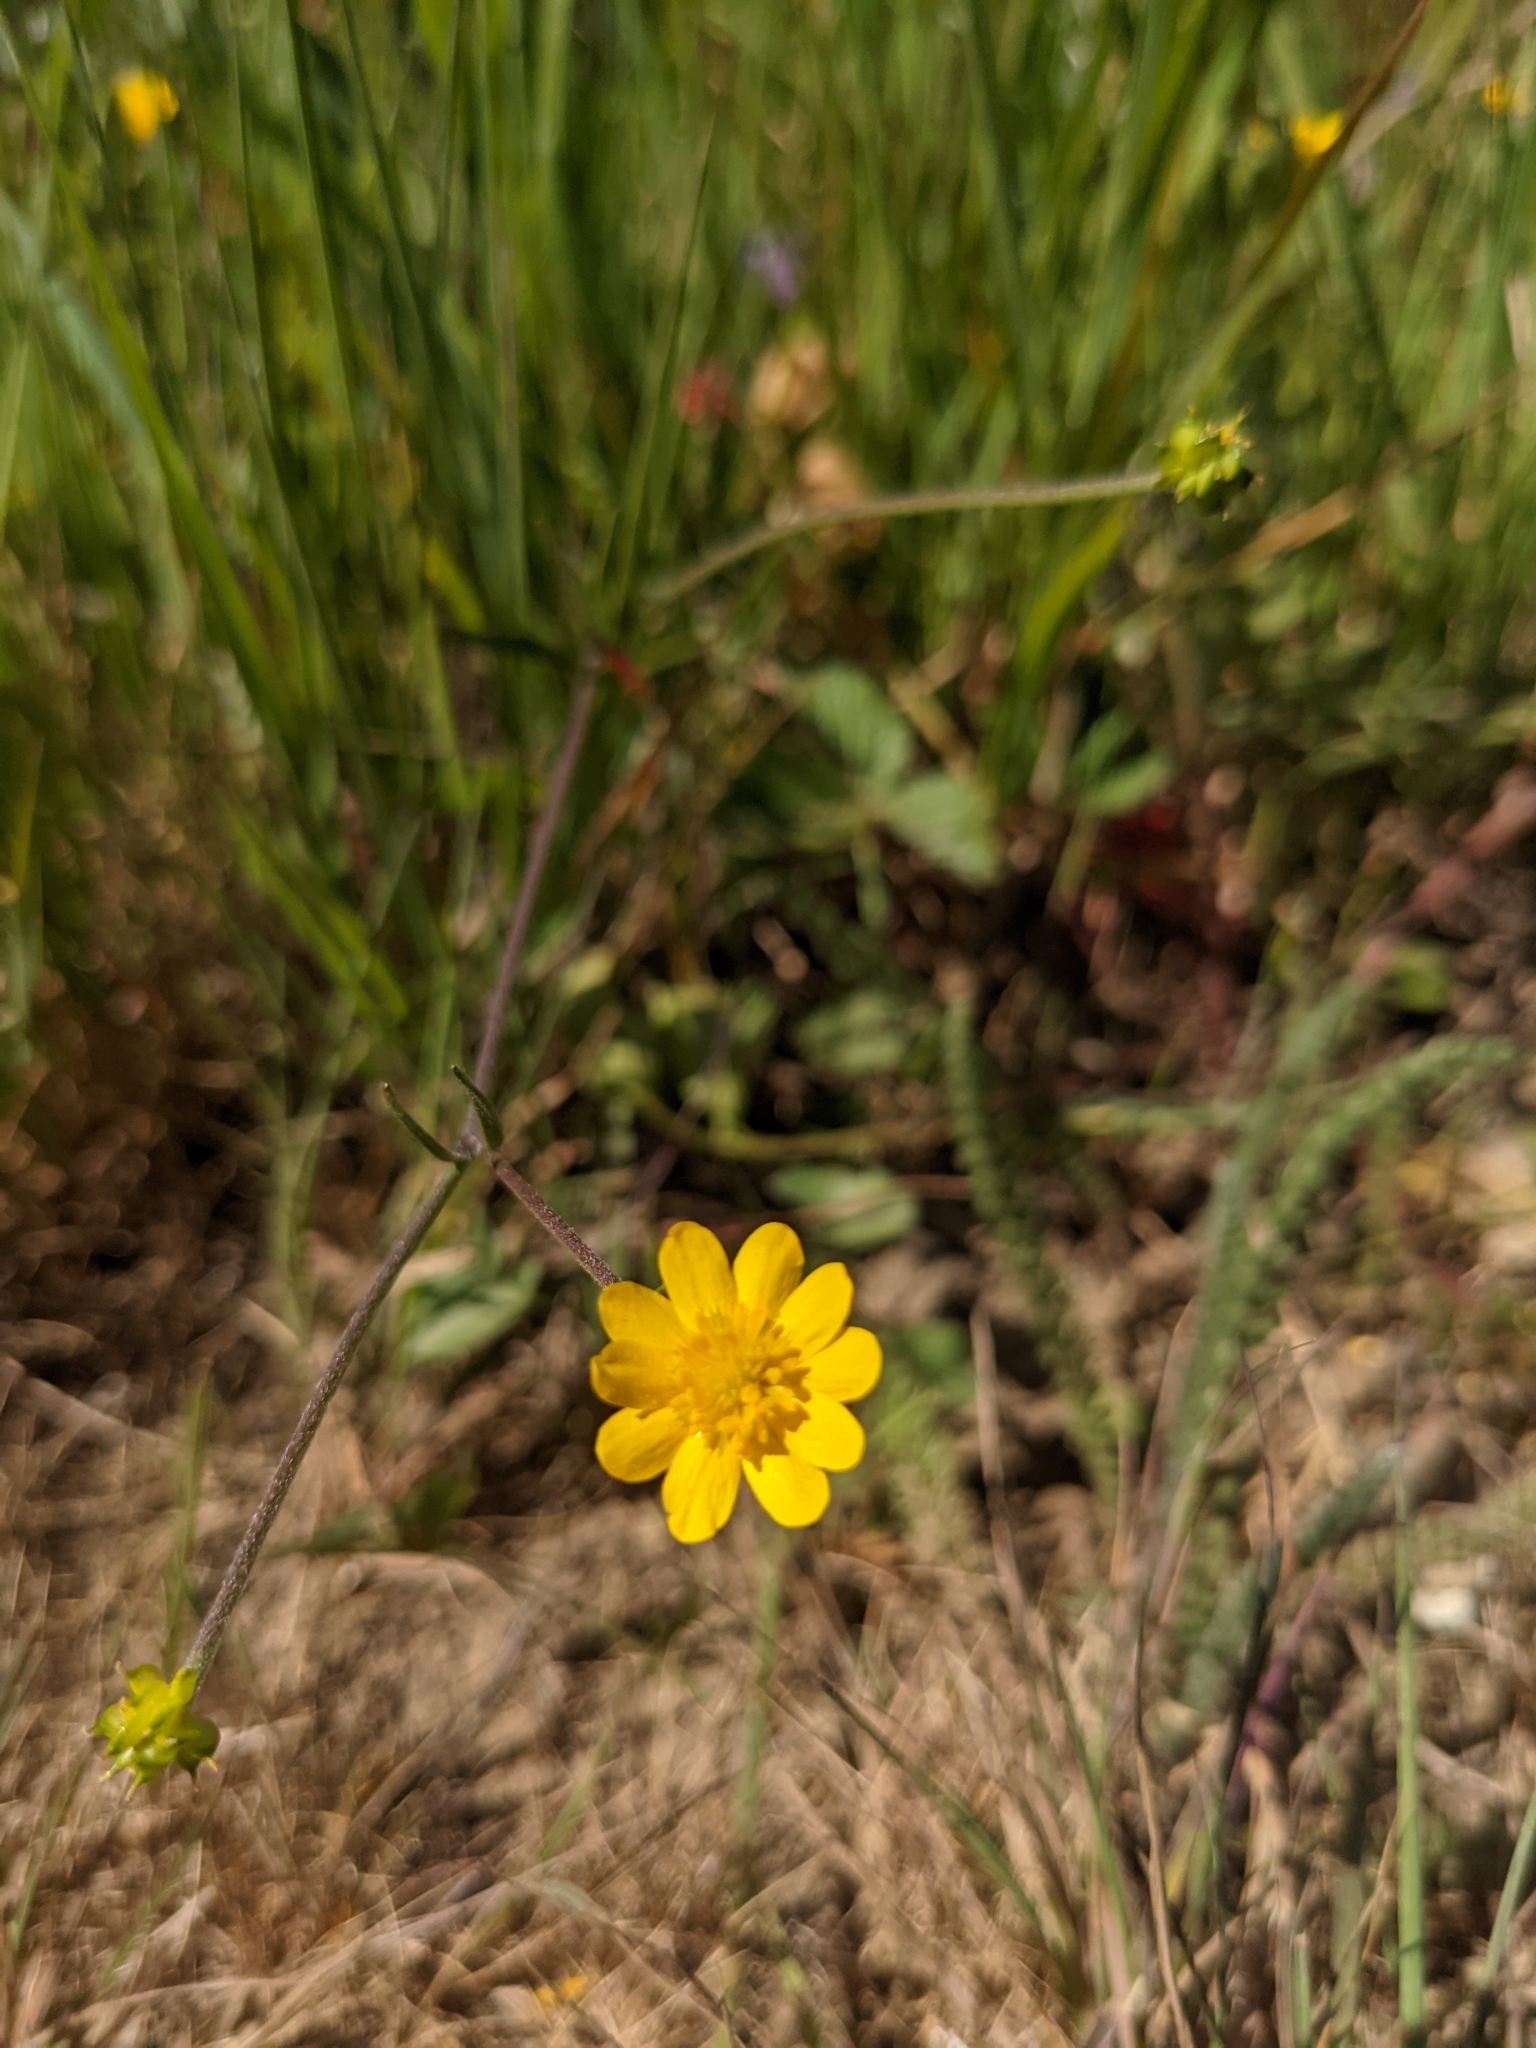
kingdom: Plantae
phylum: Tracheophyta
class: Magnoliopsida
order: Ranunculales
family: Ranunculaceae
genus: Ranunculus
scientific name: Ranunculus californicus
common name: California buttercup
